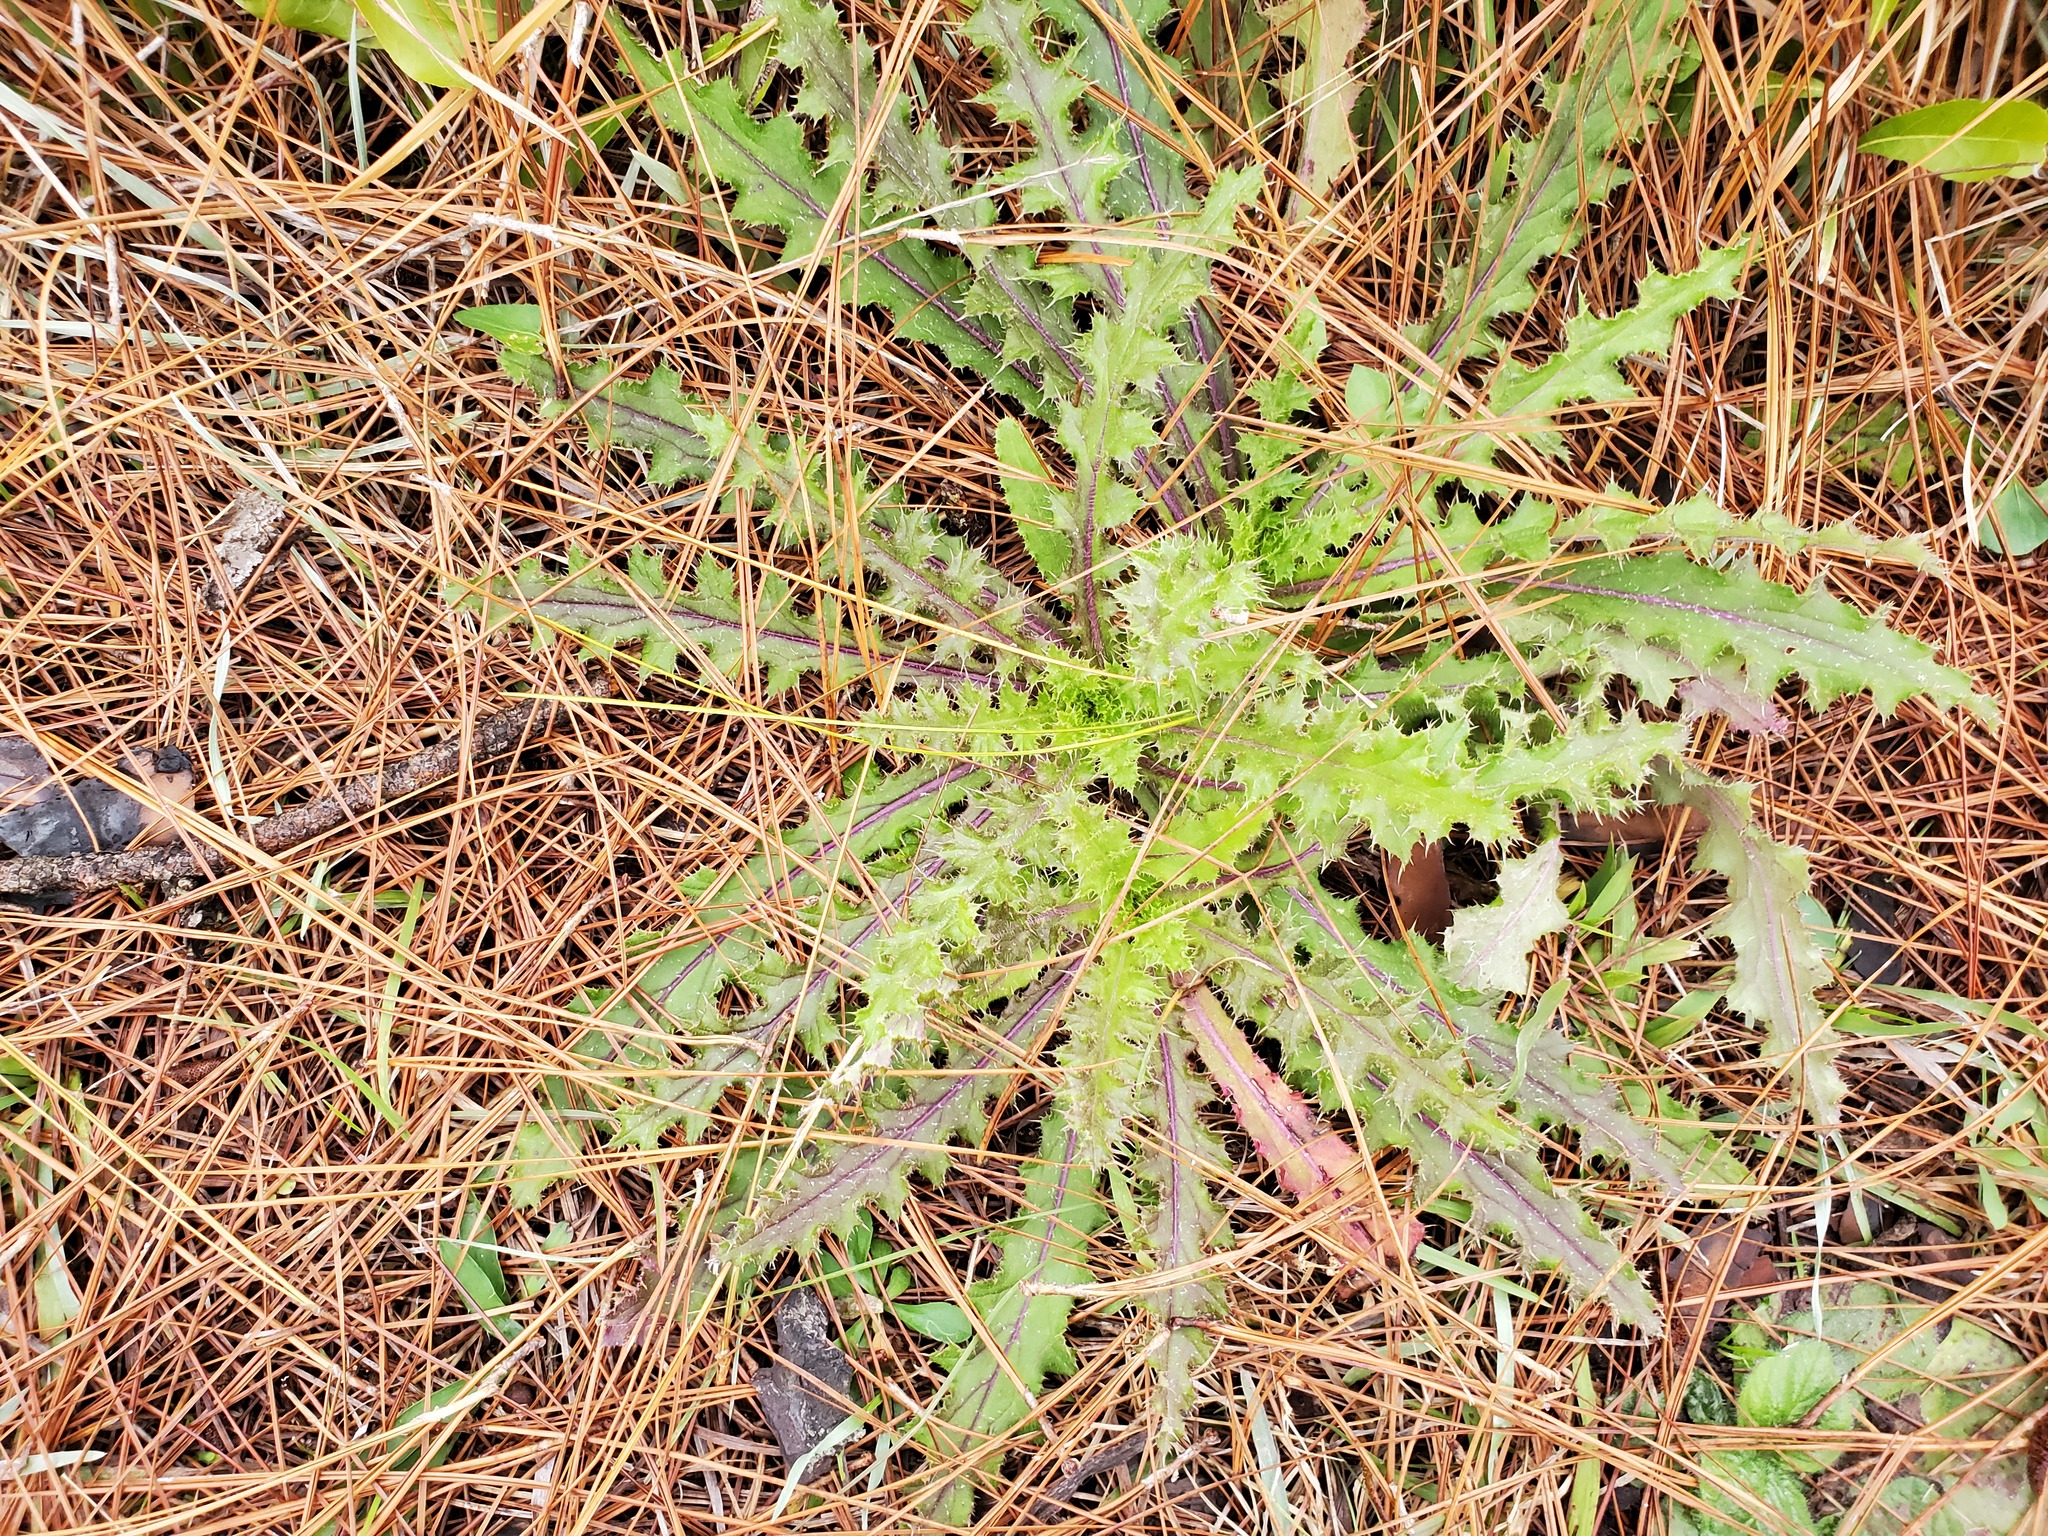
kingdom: Plantae
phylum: Tracheophyta
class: Magnoliopsida
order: Asterales
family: Asteraceae
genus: Cirsium
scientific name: Cirsium horridulum
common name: Bristly thistle
